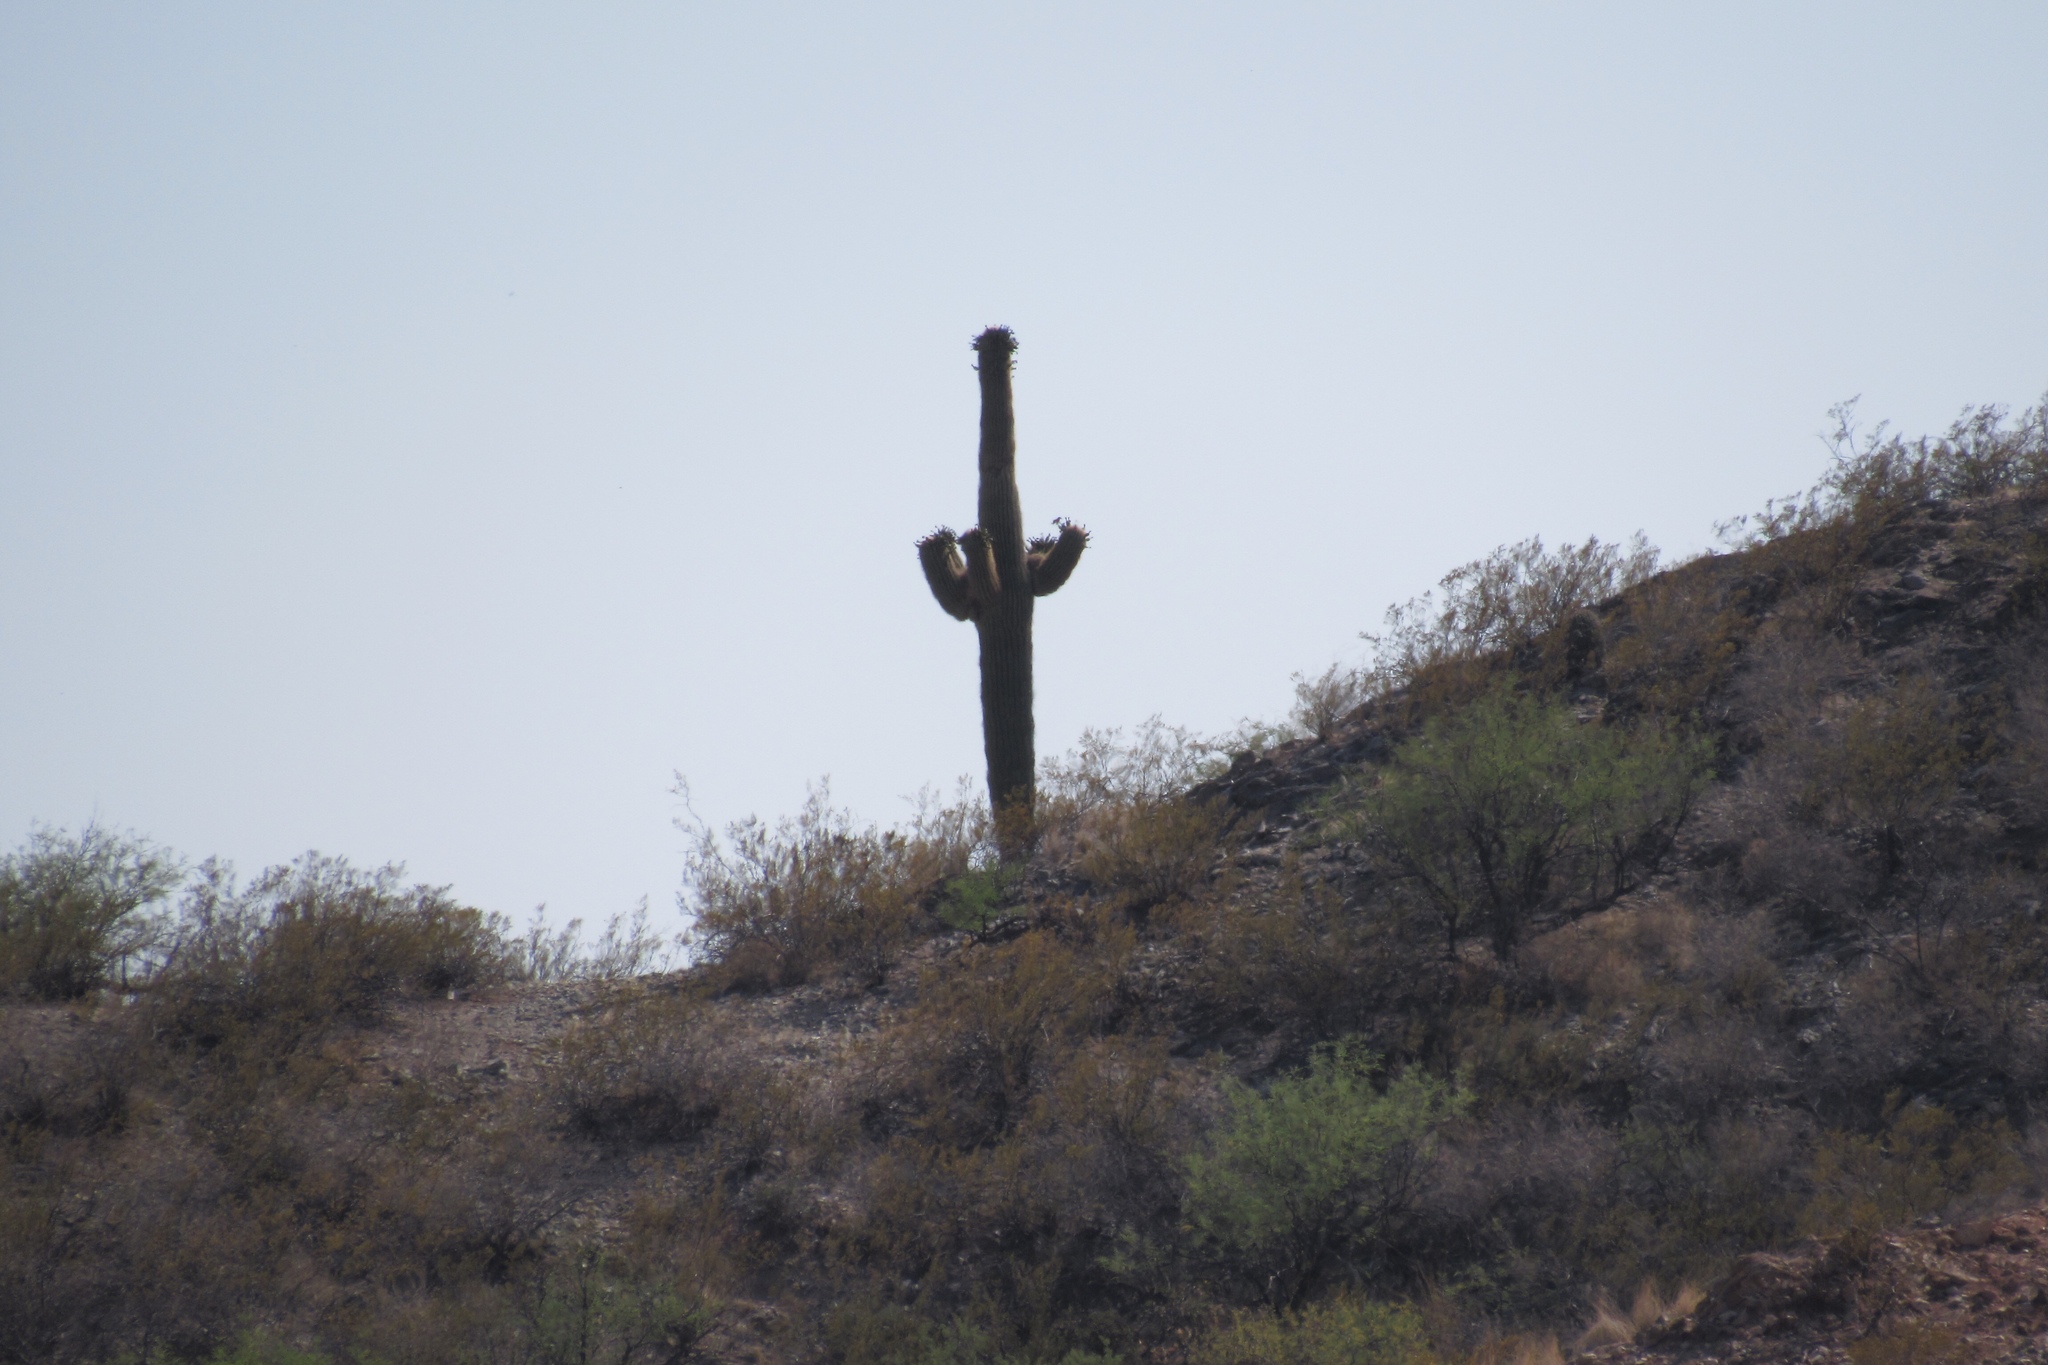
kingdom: Plantae
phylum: Tracheophyta
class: Magnoliopsida
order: Caryophyllales
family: Cactaceae
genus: Carnegiea
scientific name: Carnegiea gigantea
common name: Saguaro
